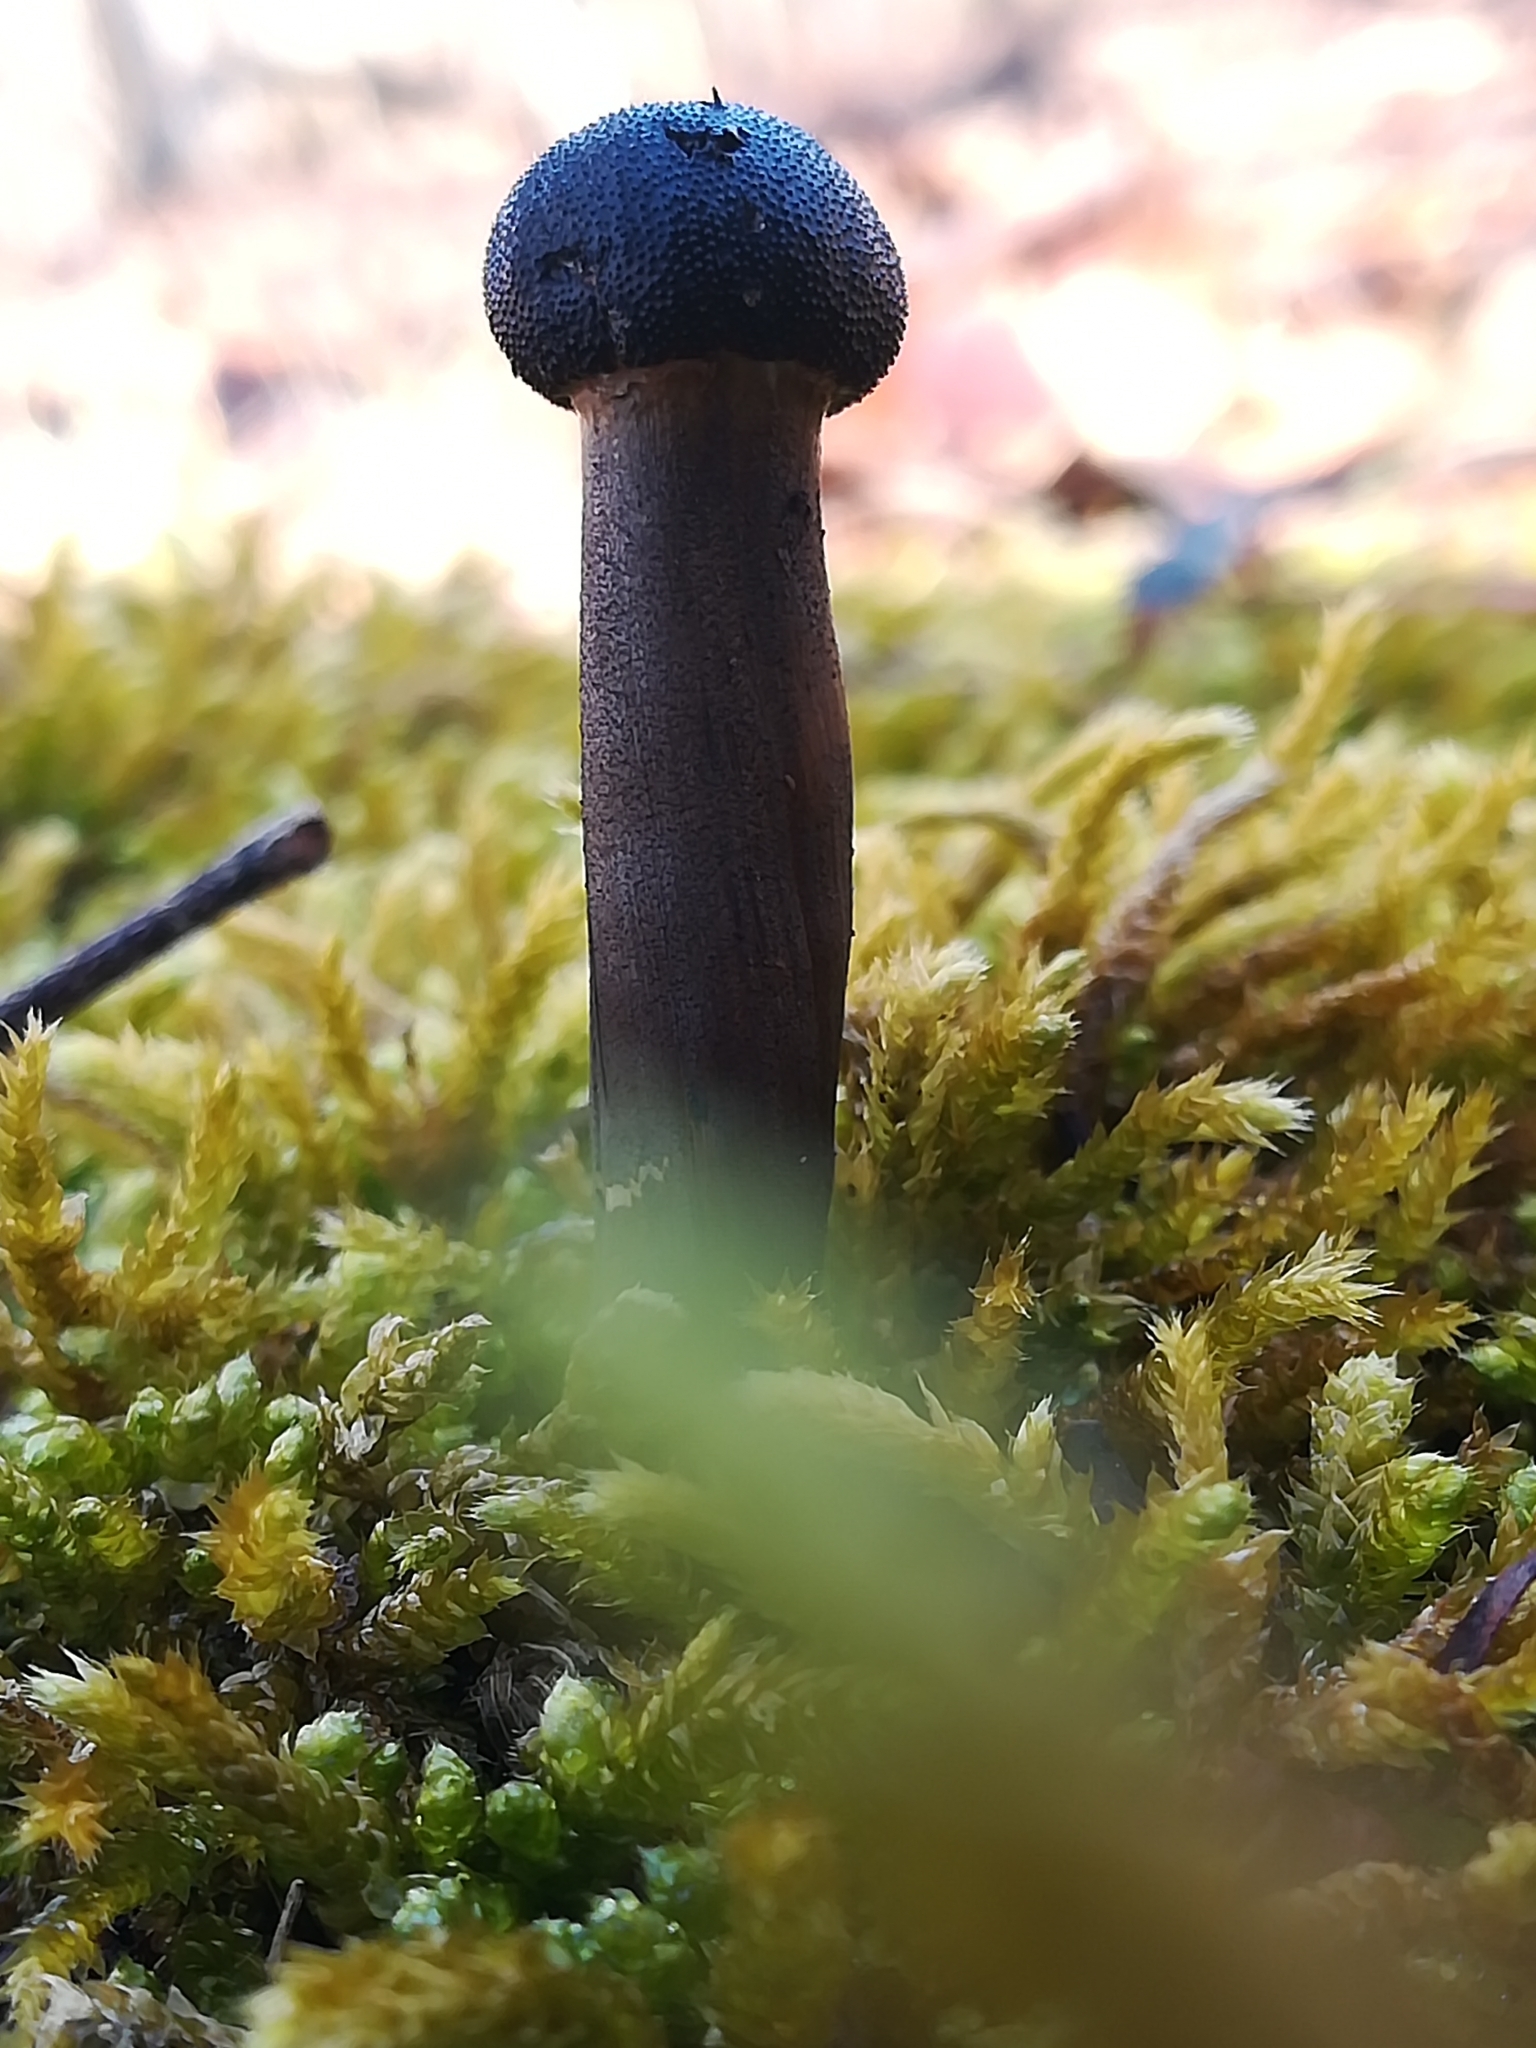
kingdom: Fungi
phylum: Ascomycota
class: Sordariomycetes
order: Hypocreales
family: Ophiocordycipitaceae
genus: Tolypocladium
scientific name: Tolypocladium capitatum
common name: Capitate truffleclub
